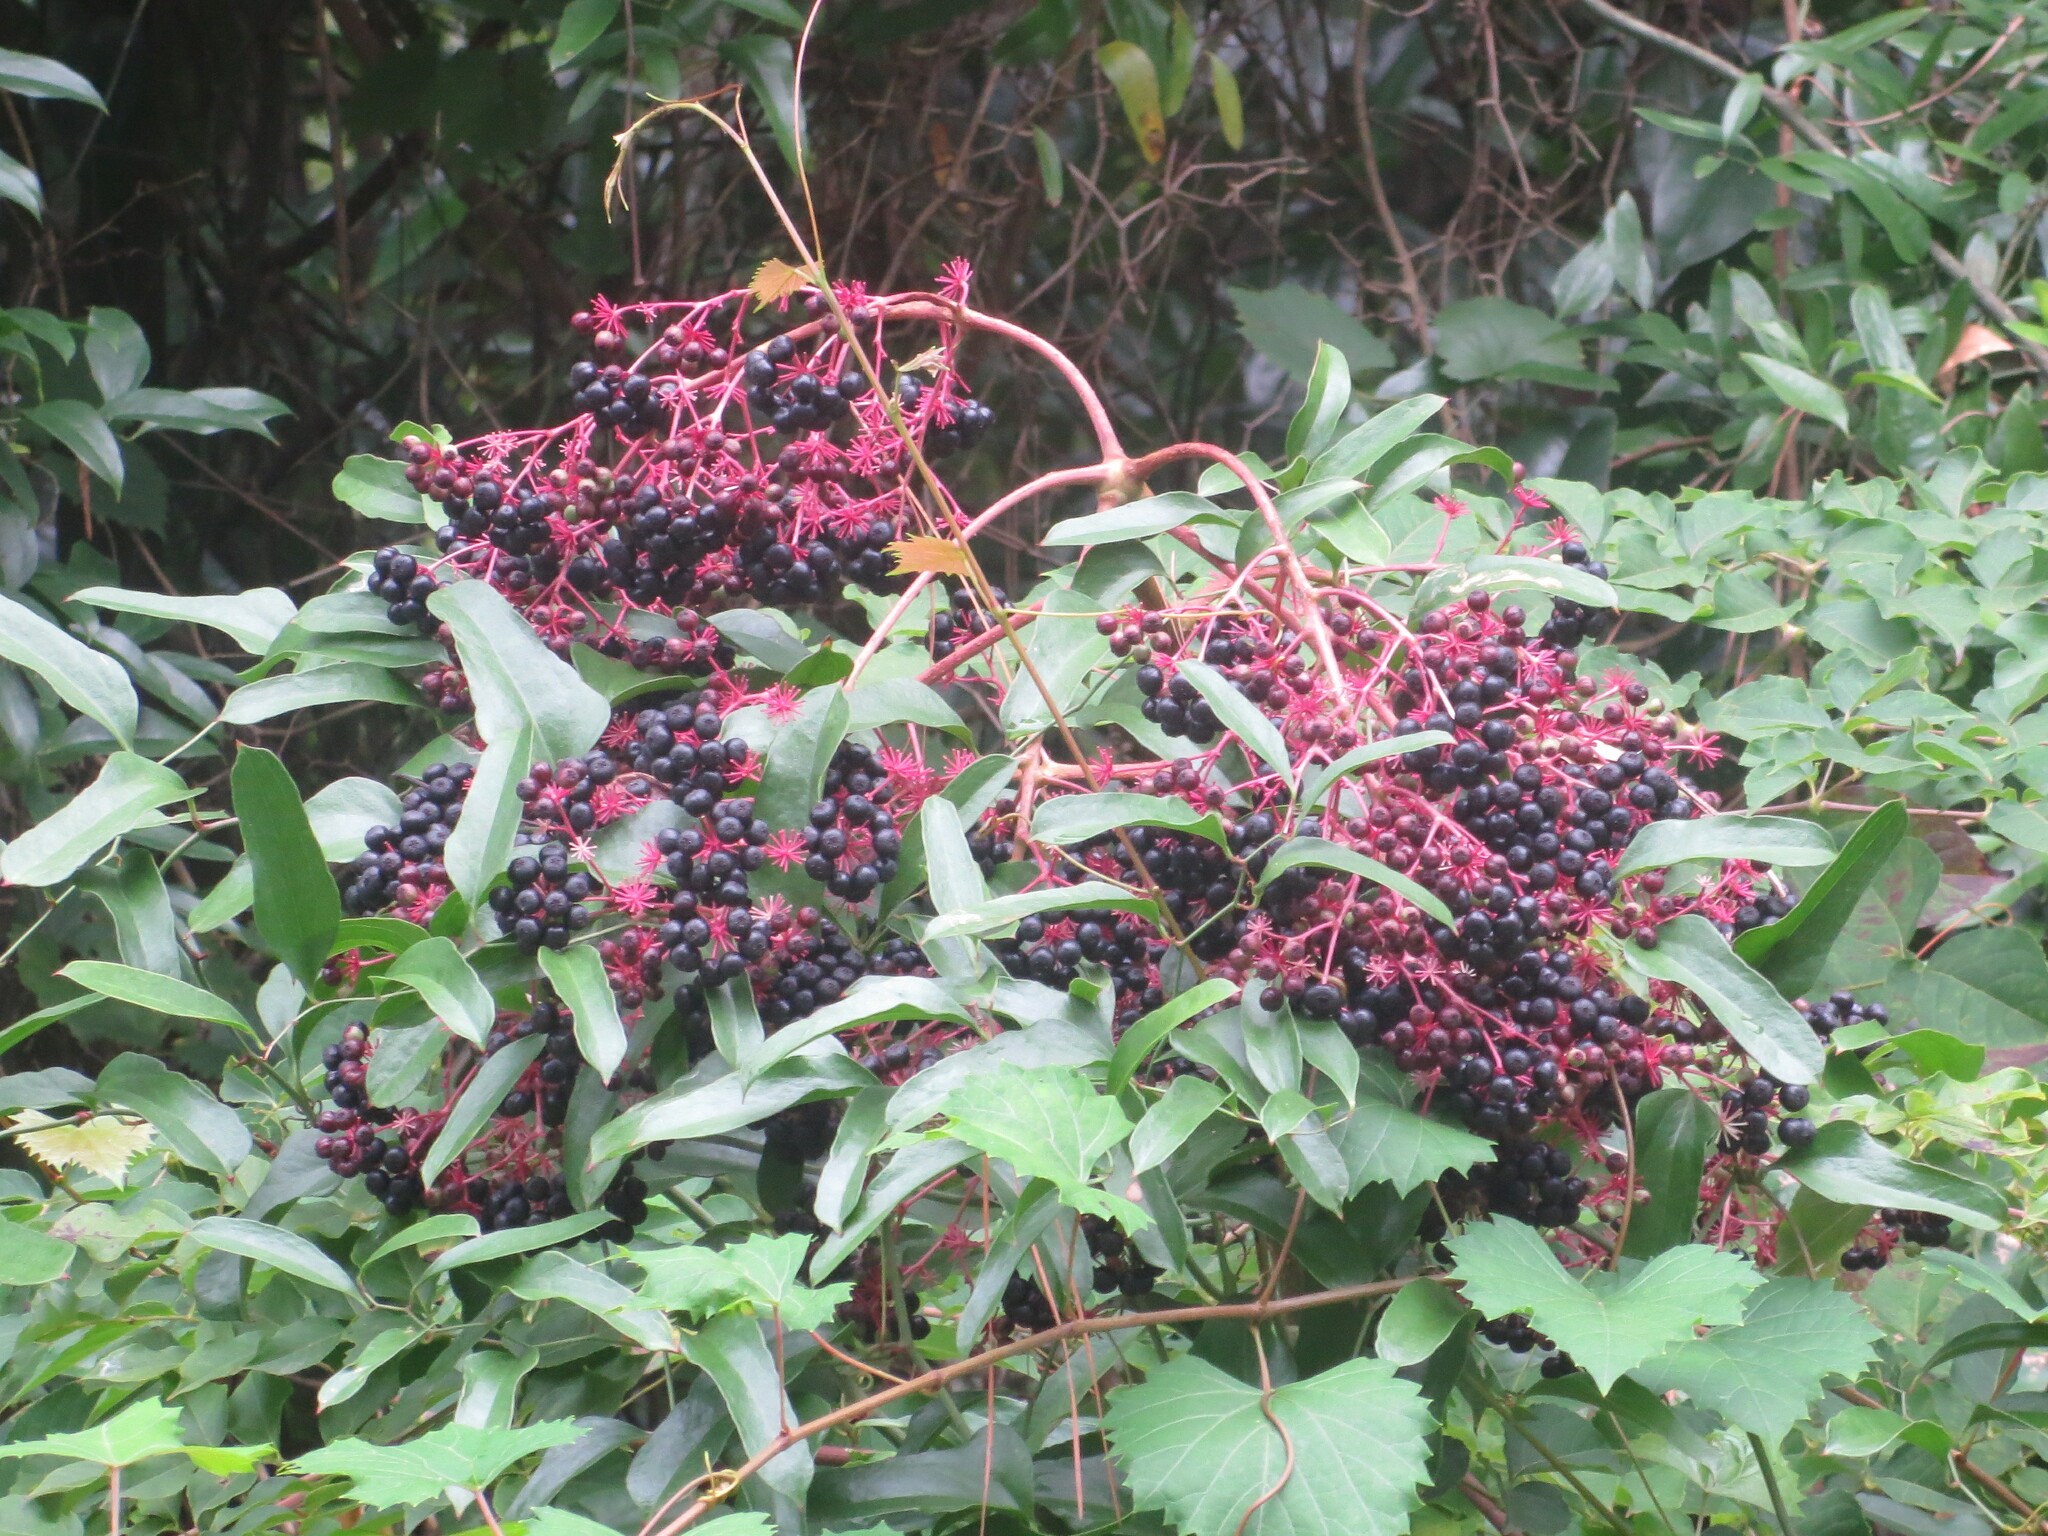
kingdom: Plantae
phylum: Tracheophyta
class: Magnoliopsida
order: Apiales
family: Araliaceae
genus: Aralia
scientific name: Aralia spinosa
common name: Hercules'-club
